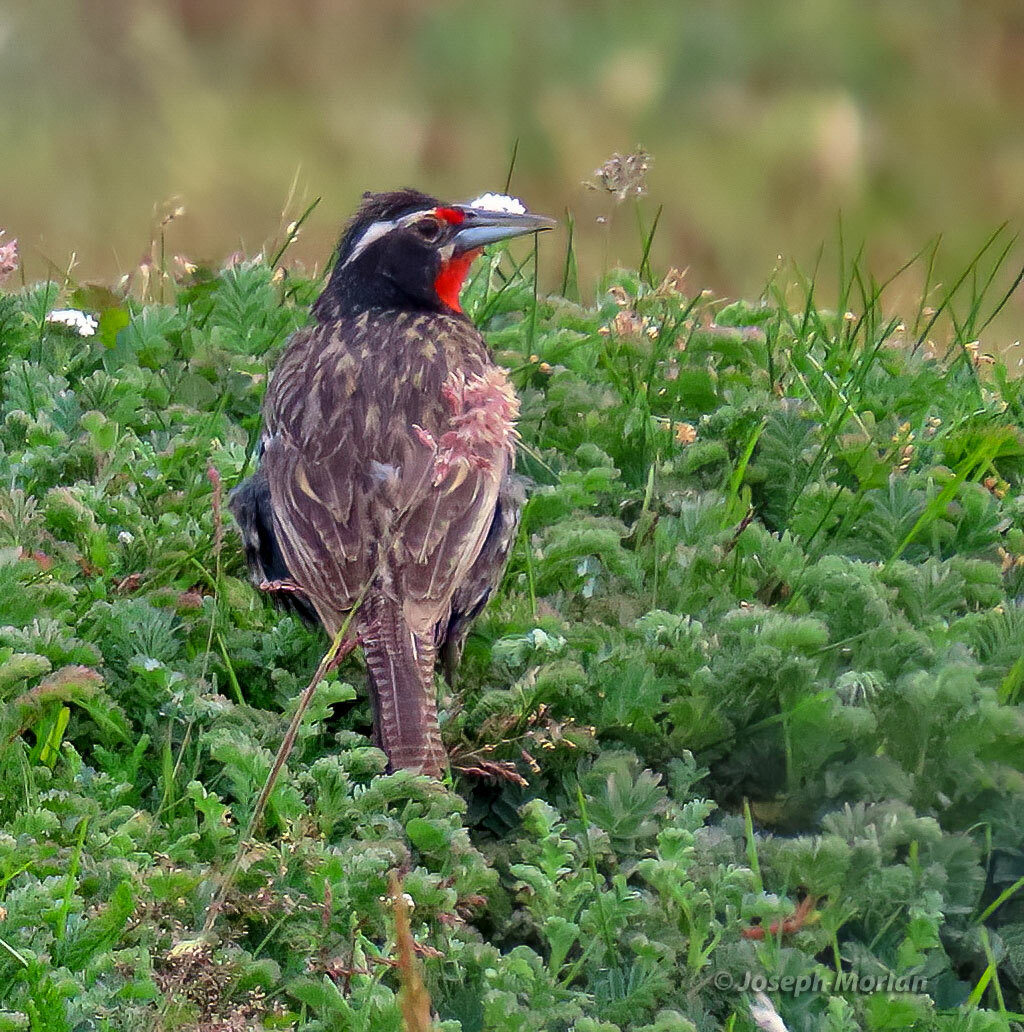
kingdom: Animalia
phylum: Chordata
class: Aves
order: Passeriformes
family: Icteridae
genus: Sturnella
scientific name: Sturnella loyca
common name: Long-tailed meadowlark
